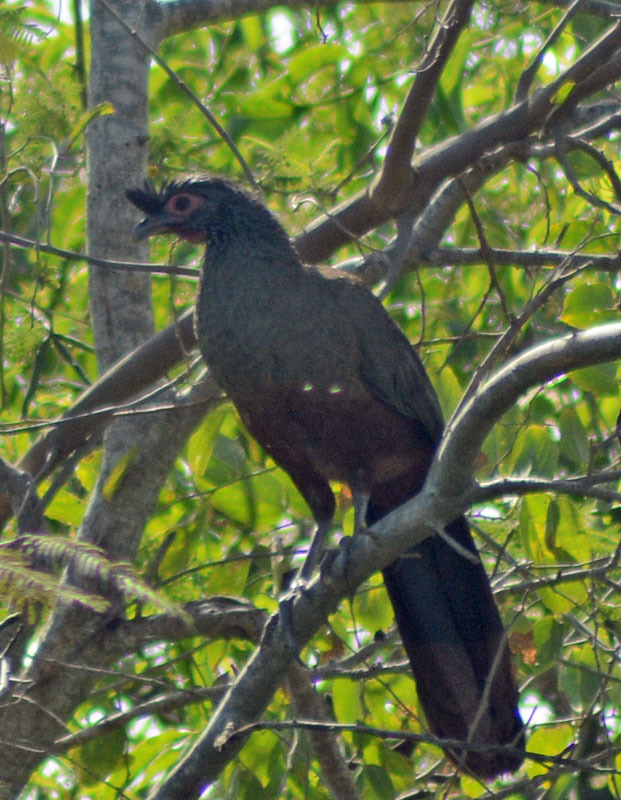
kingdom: Animalia
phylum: Chordata
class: Aves
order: Galliformes
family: Cracidae
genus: Ortalis
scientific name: Ortalis wagleri
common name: Rufous-bellied chachalaca
